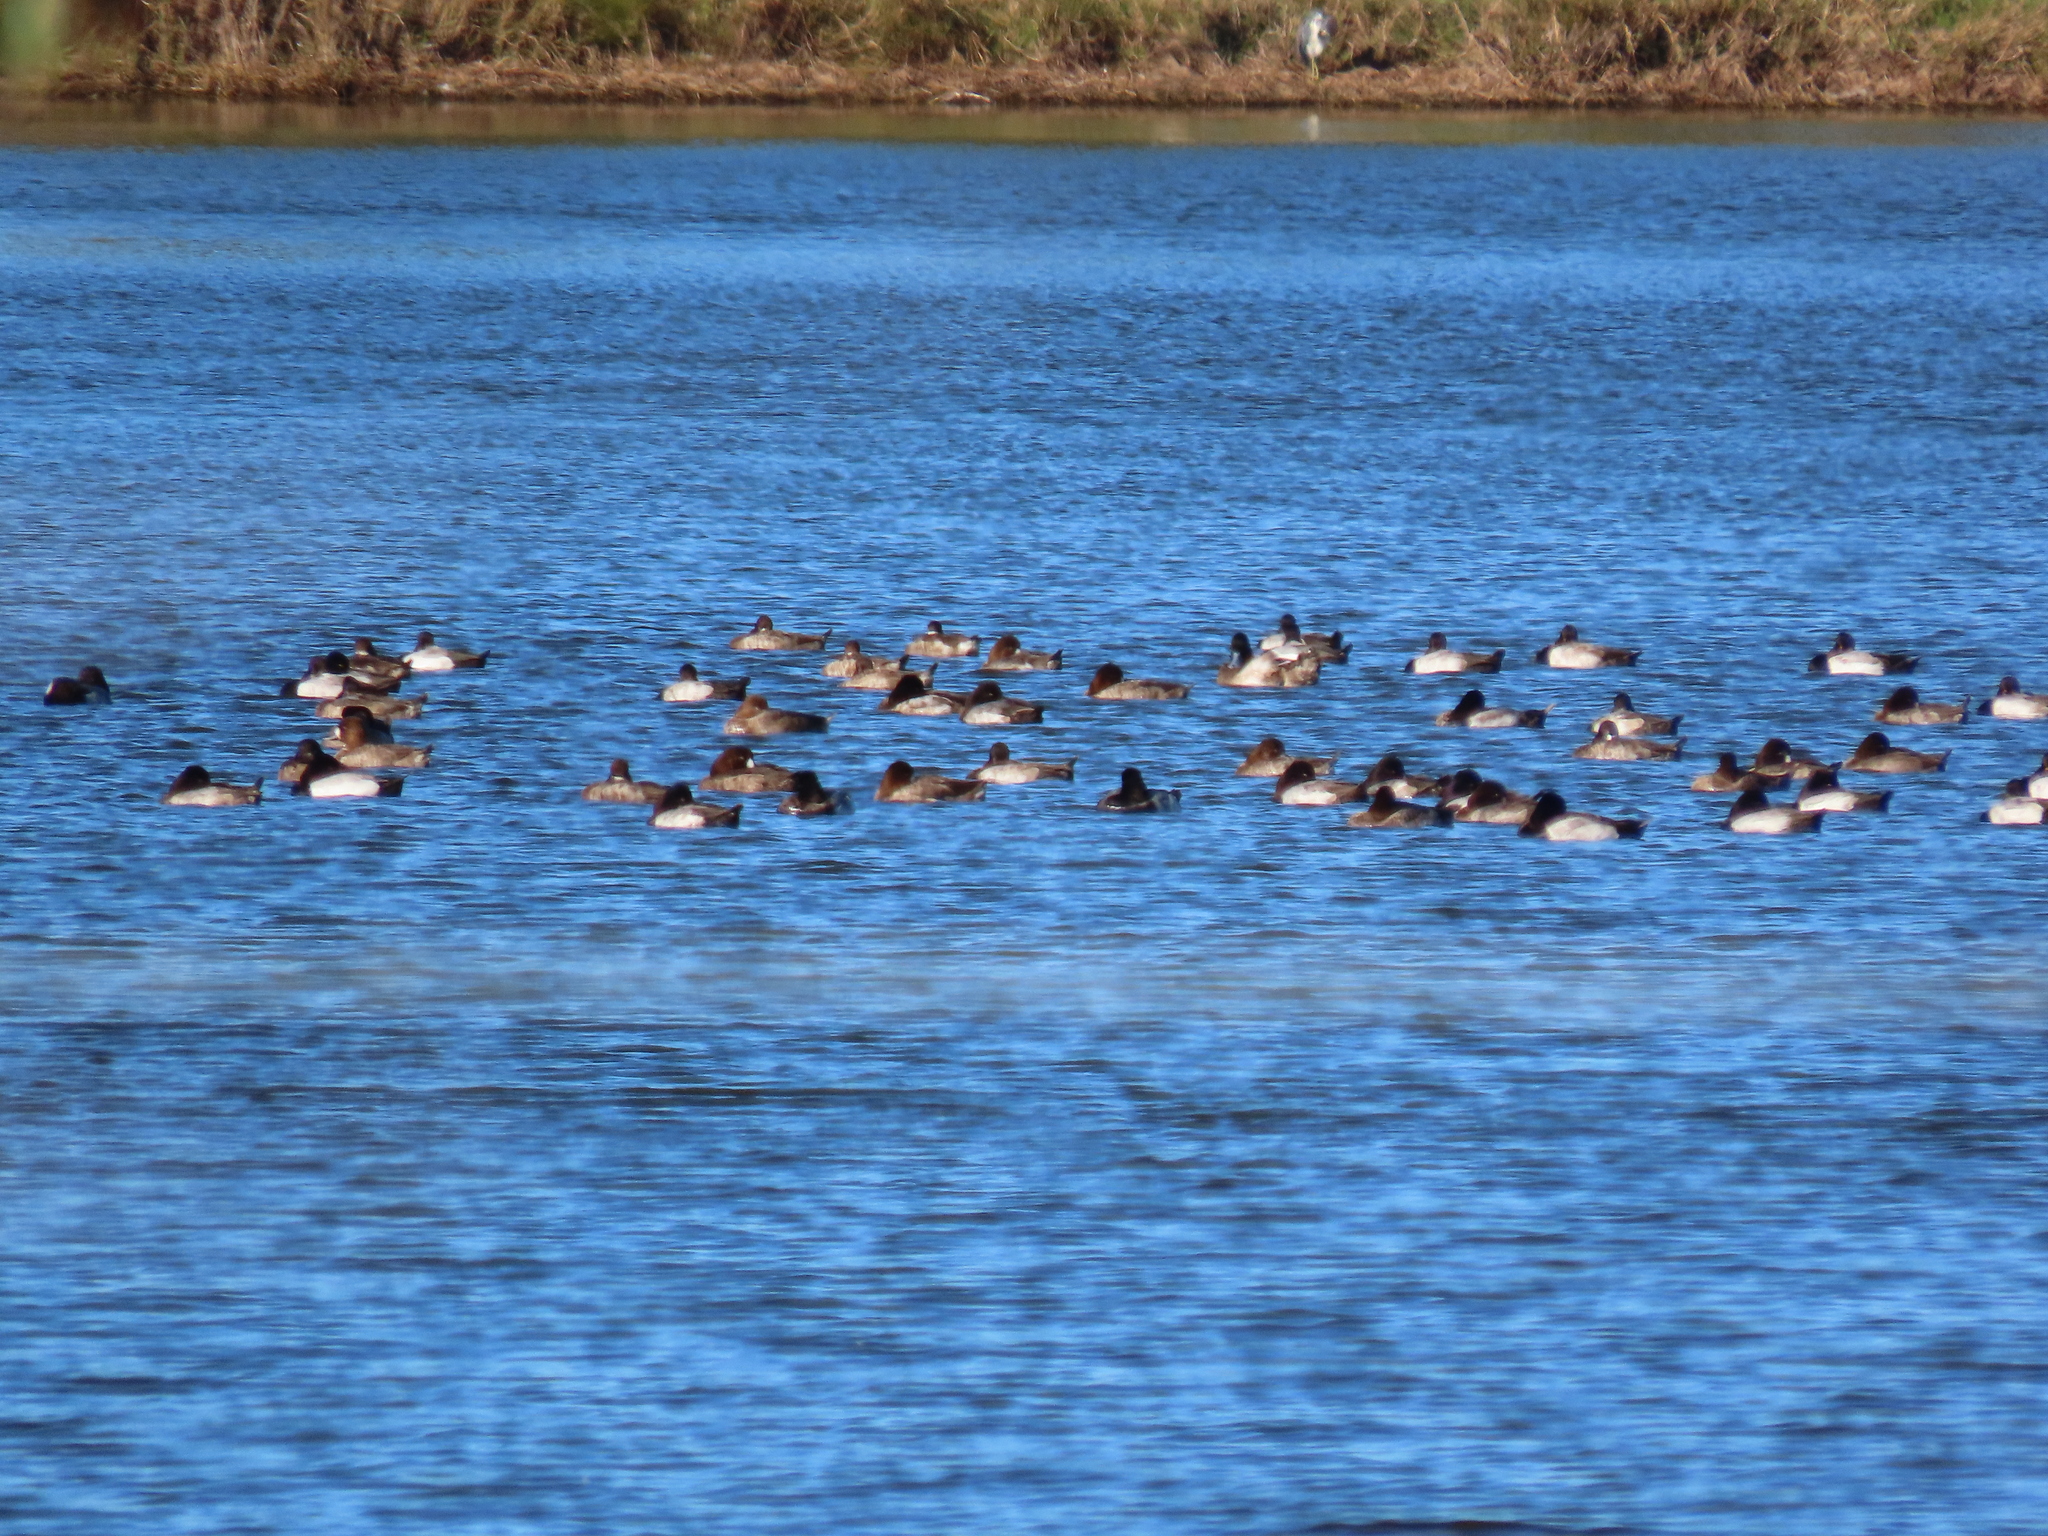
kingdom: Animalia
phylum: Chordata
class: Aves
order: Anseriformes
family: Anatidae
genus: Aythya
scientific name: Aythya marila
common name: Greater scaup
